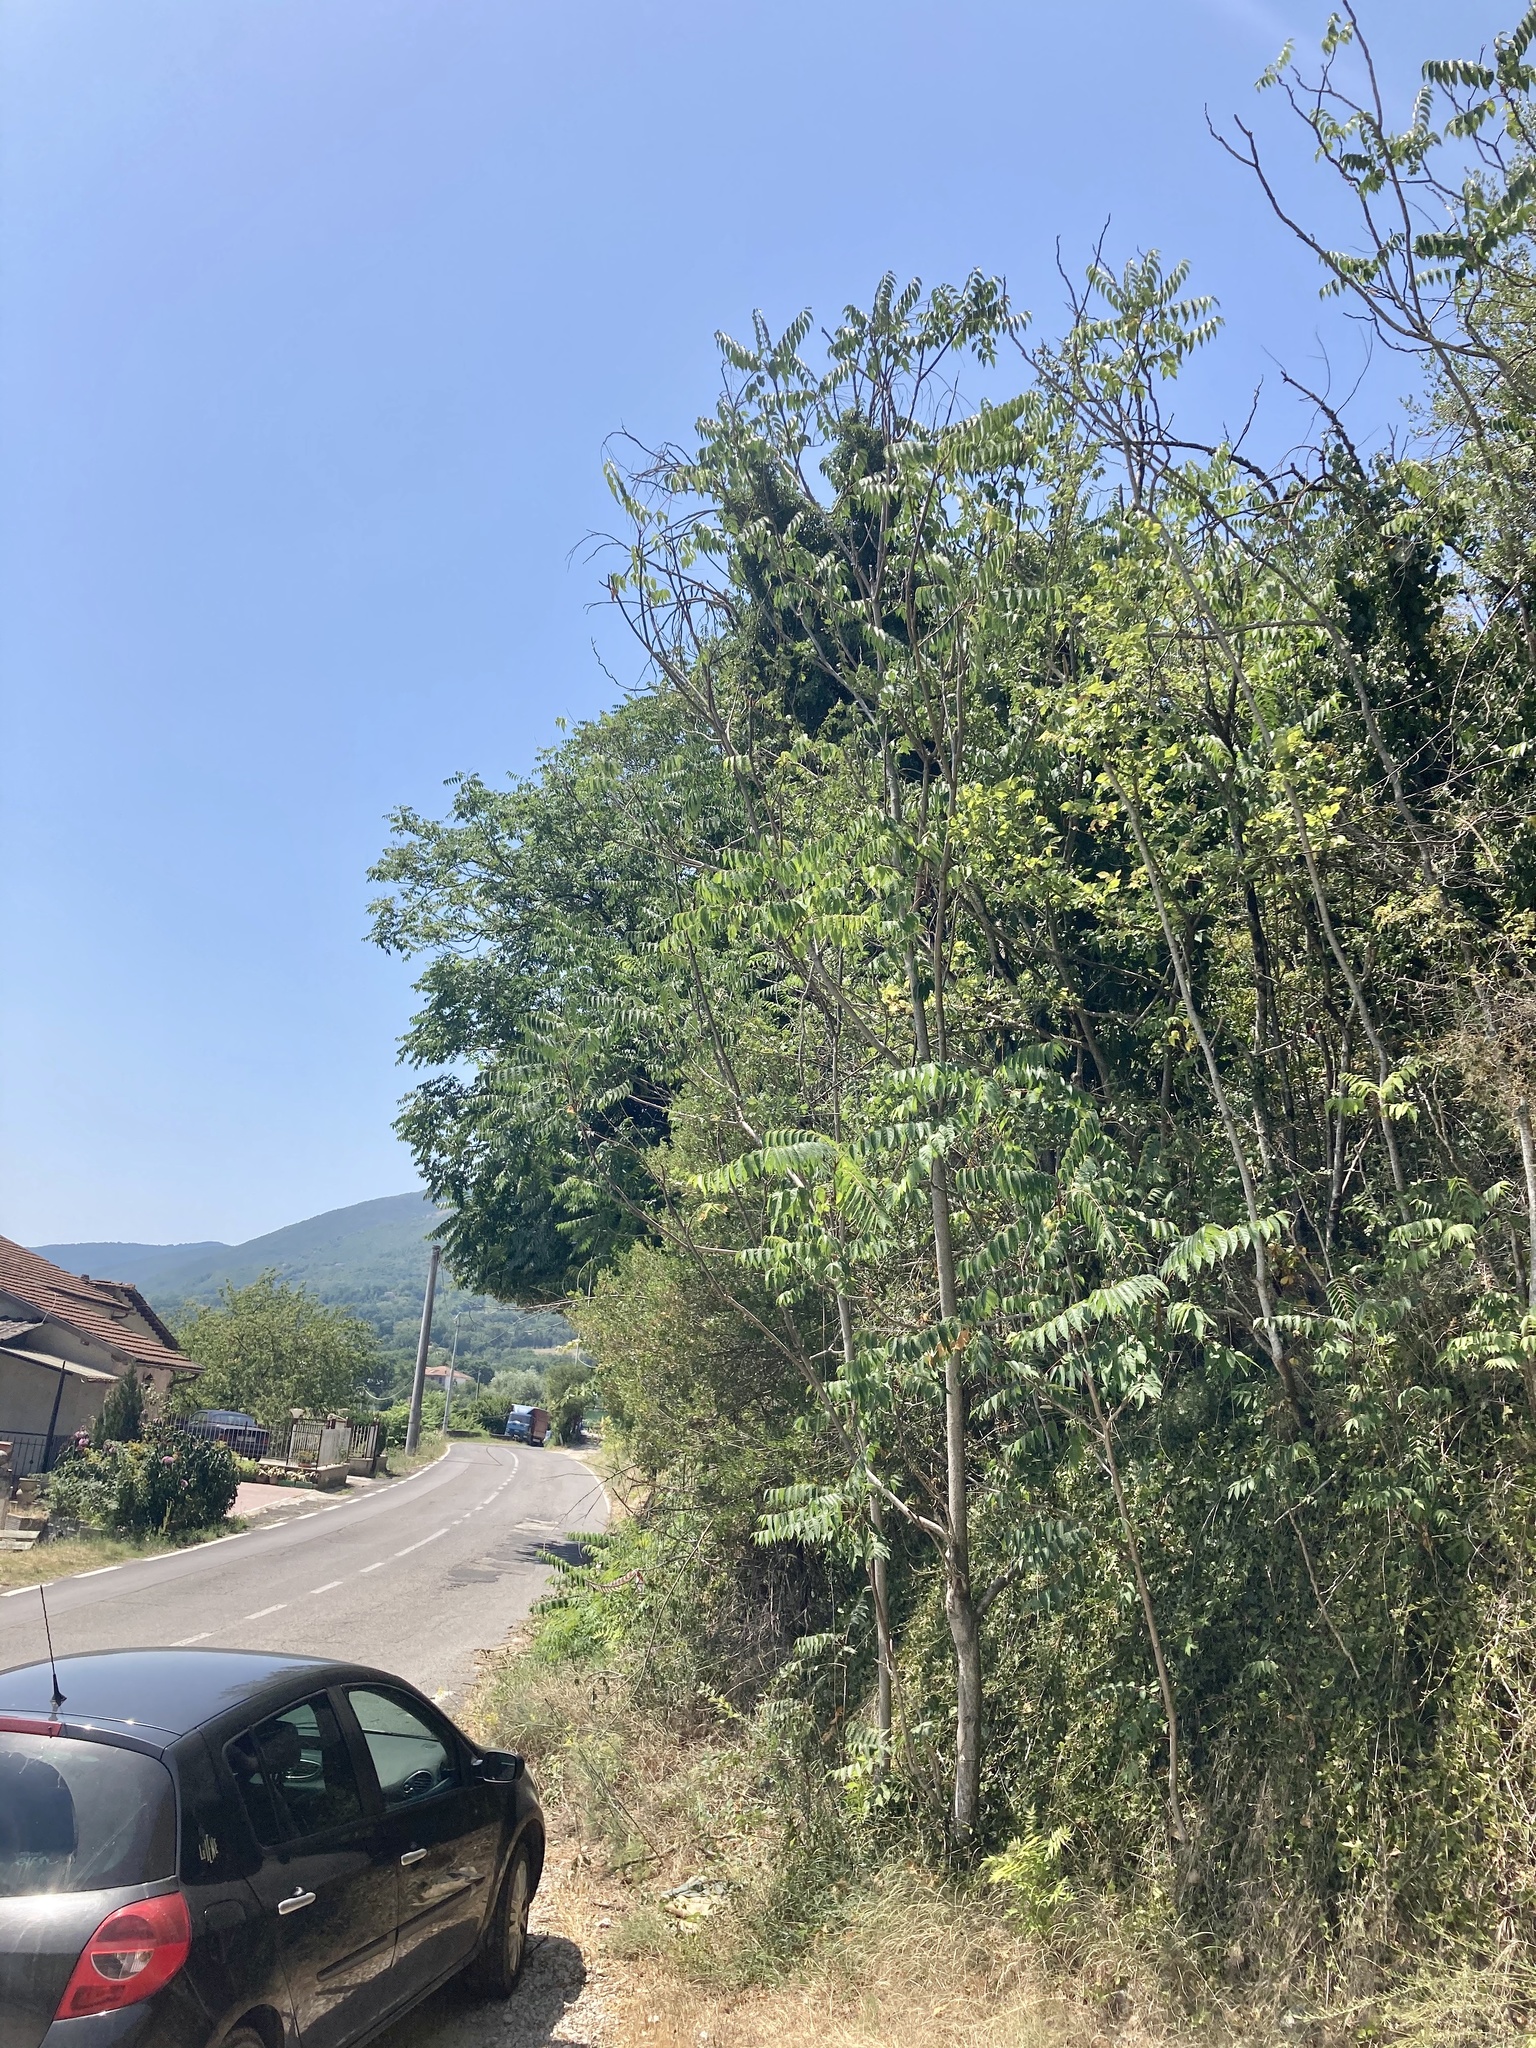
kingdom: Plantae
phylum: Tracheophyta
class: Magnoliopsida
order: Sapindales
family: Simaroubaceae
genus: Ailanthus
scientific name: Ailanthus altissima
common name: Tree-of-heaven
